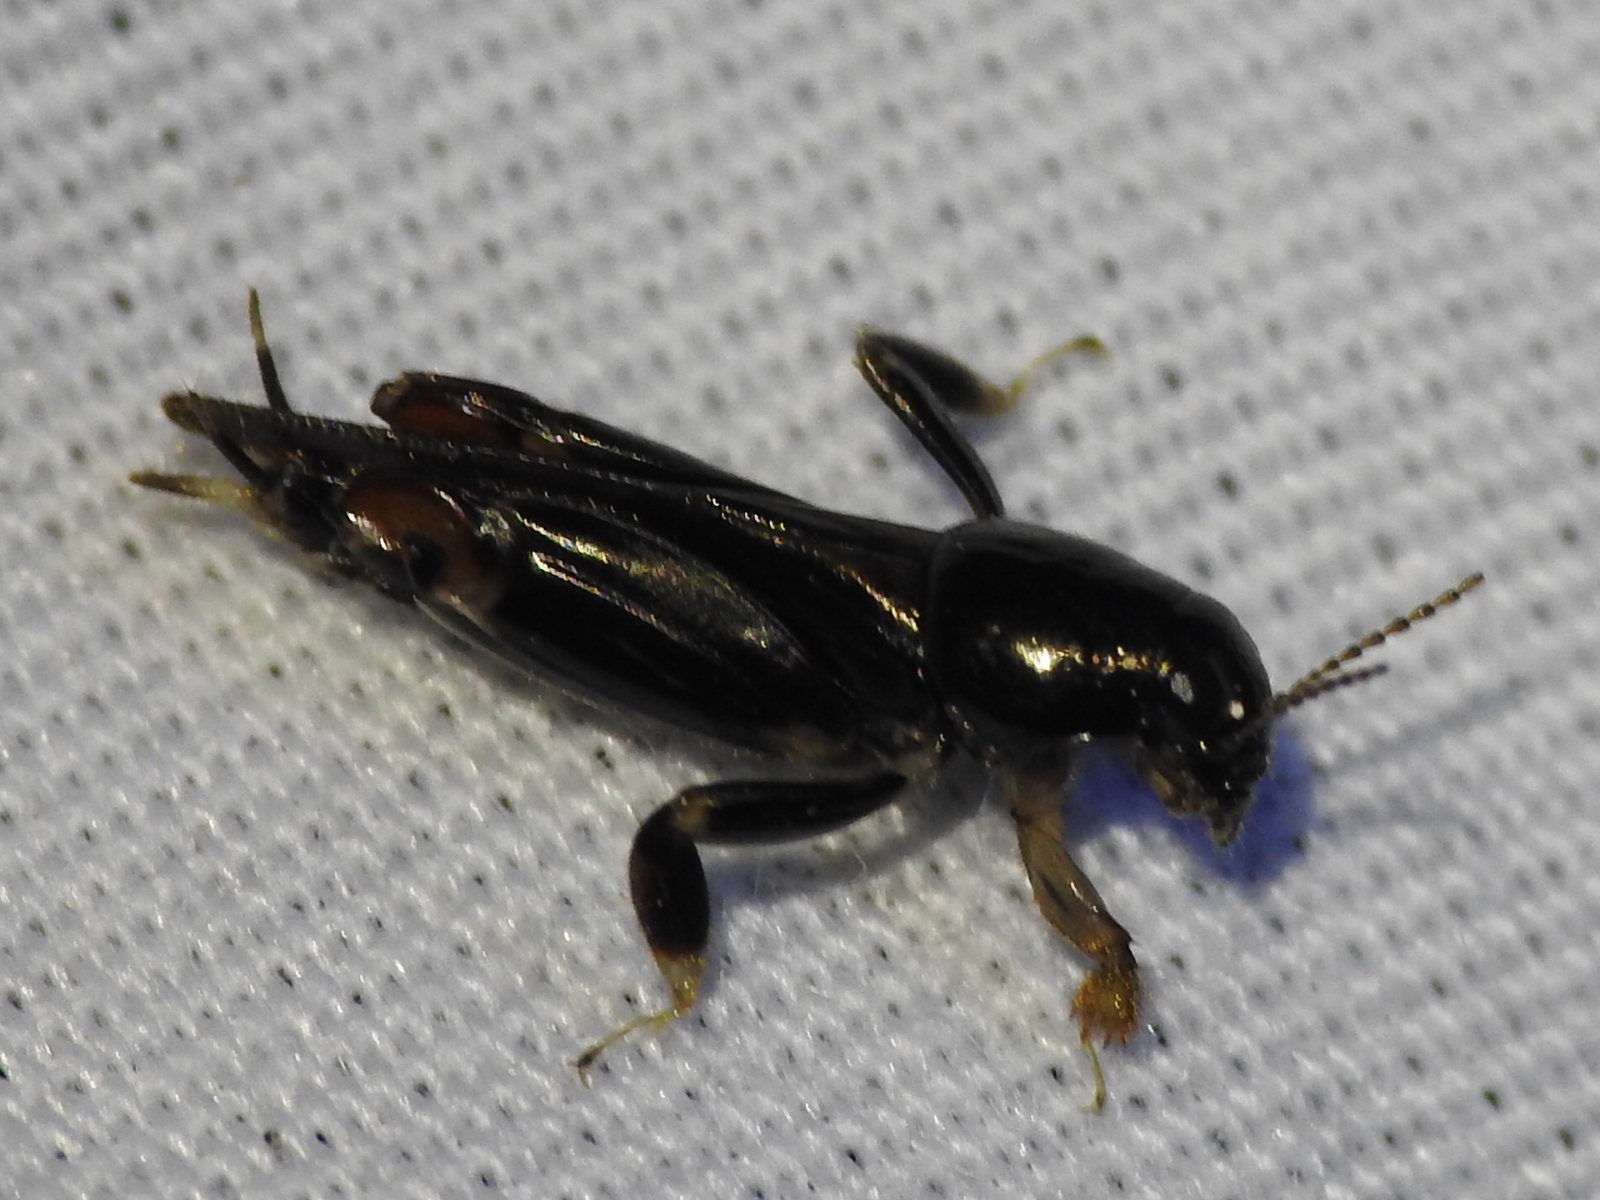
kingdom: Animalia
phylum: Arthropoda
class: Insecta
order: Orthoptera
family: Tridactylidae
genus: Neotridactylus
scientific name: Neotridactylus apicialis
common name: Larger pygmy locust
